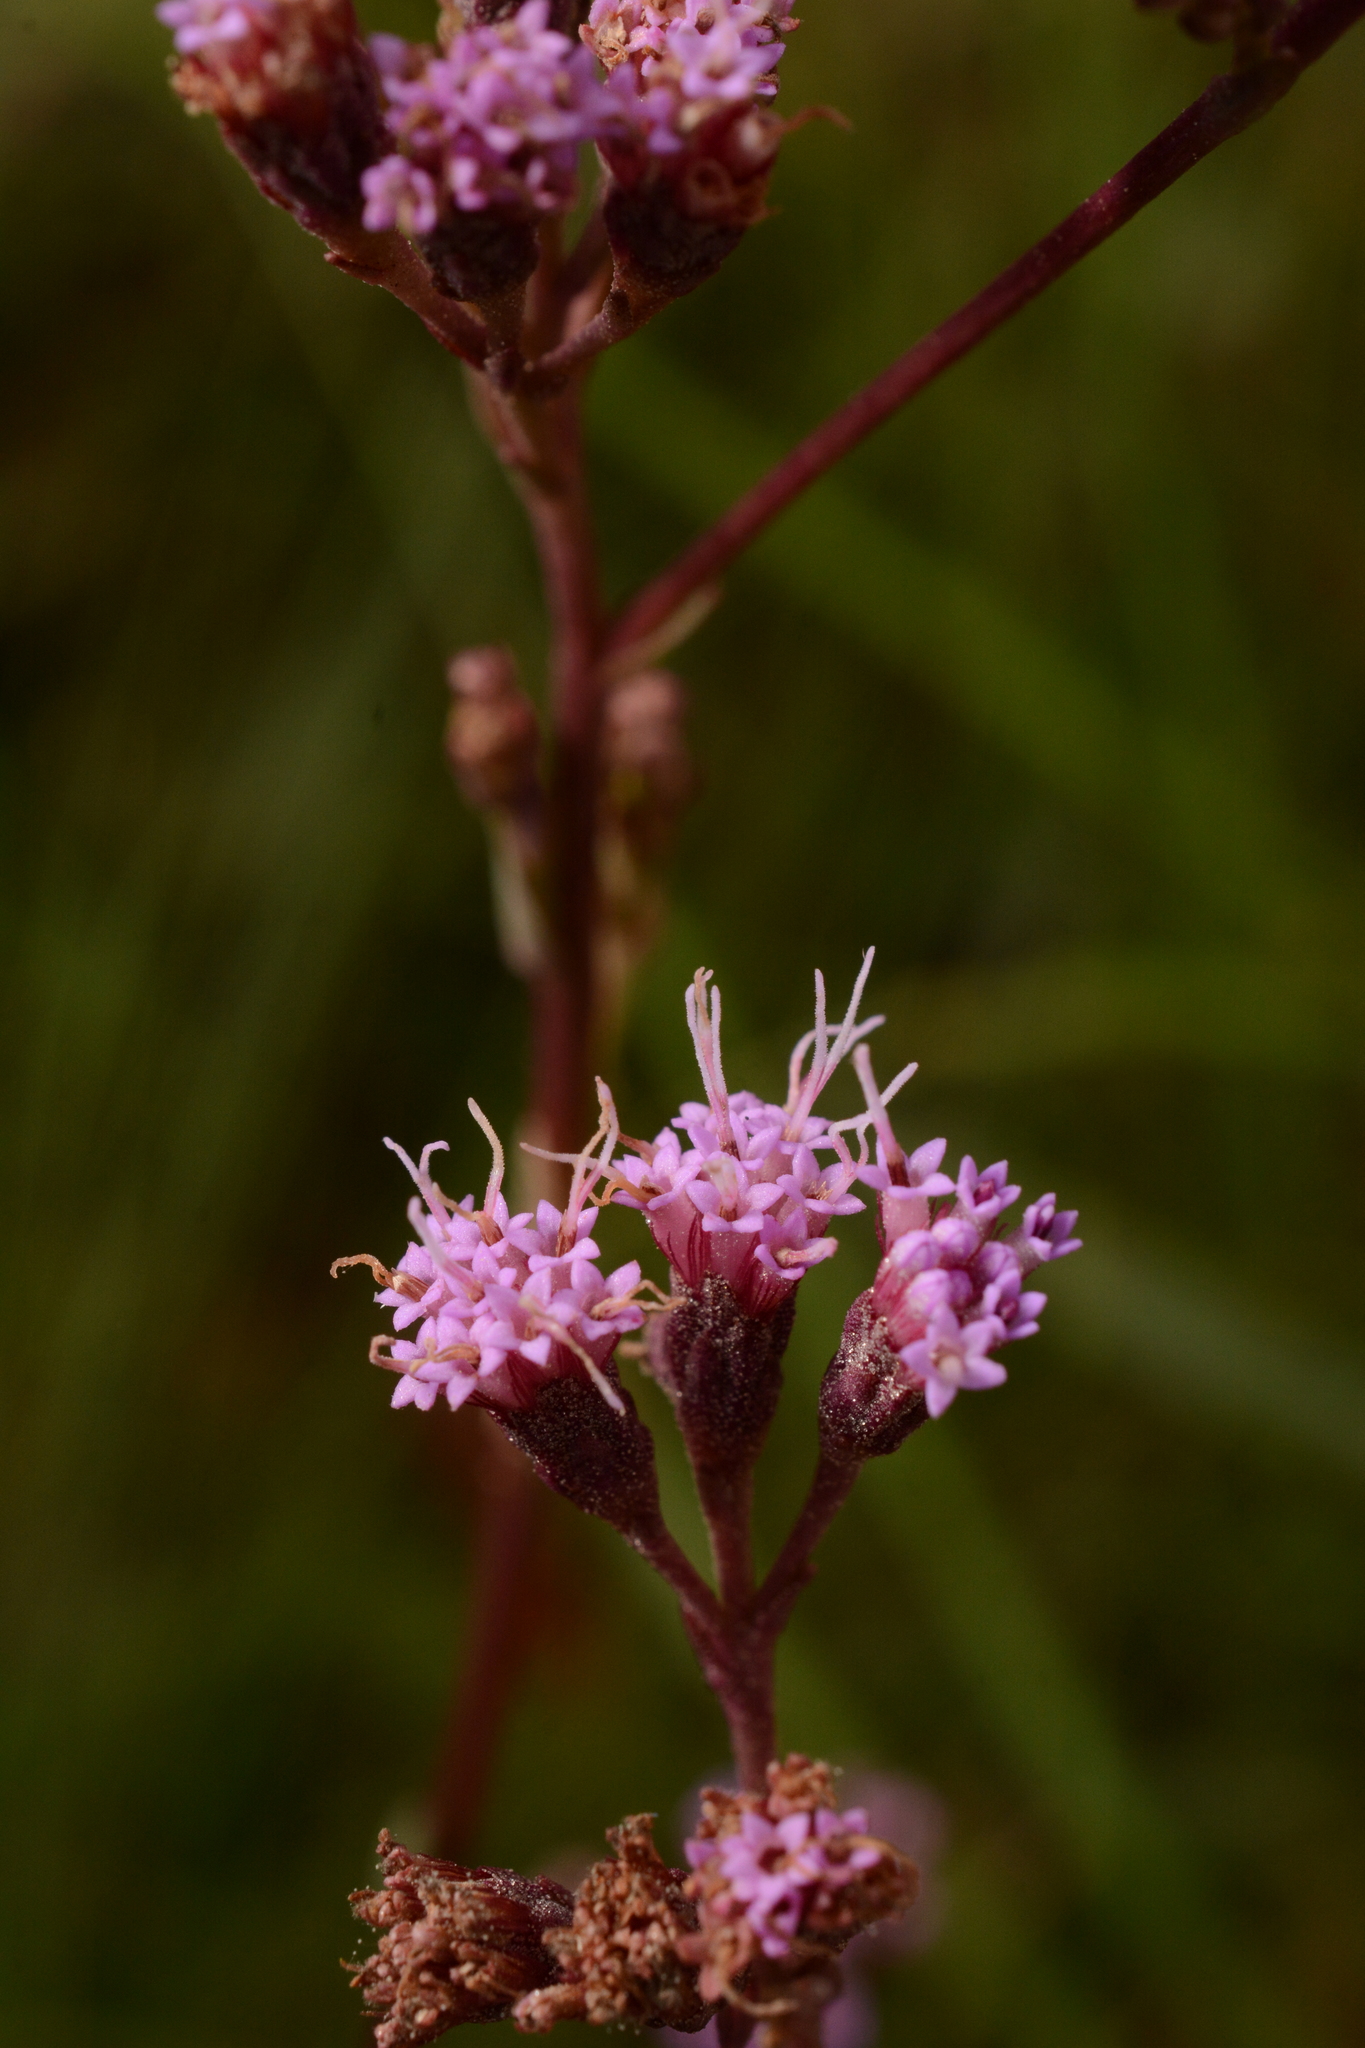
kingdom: Plantae
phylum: Tracheophyta
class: Magnoliopsida
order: Asterales
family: Asteraceae
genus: Carphephorus
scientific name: Carphephorus odoratissimus
